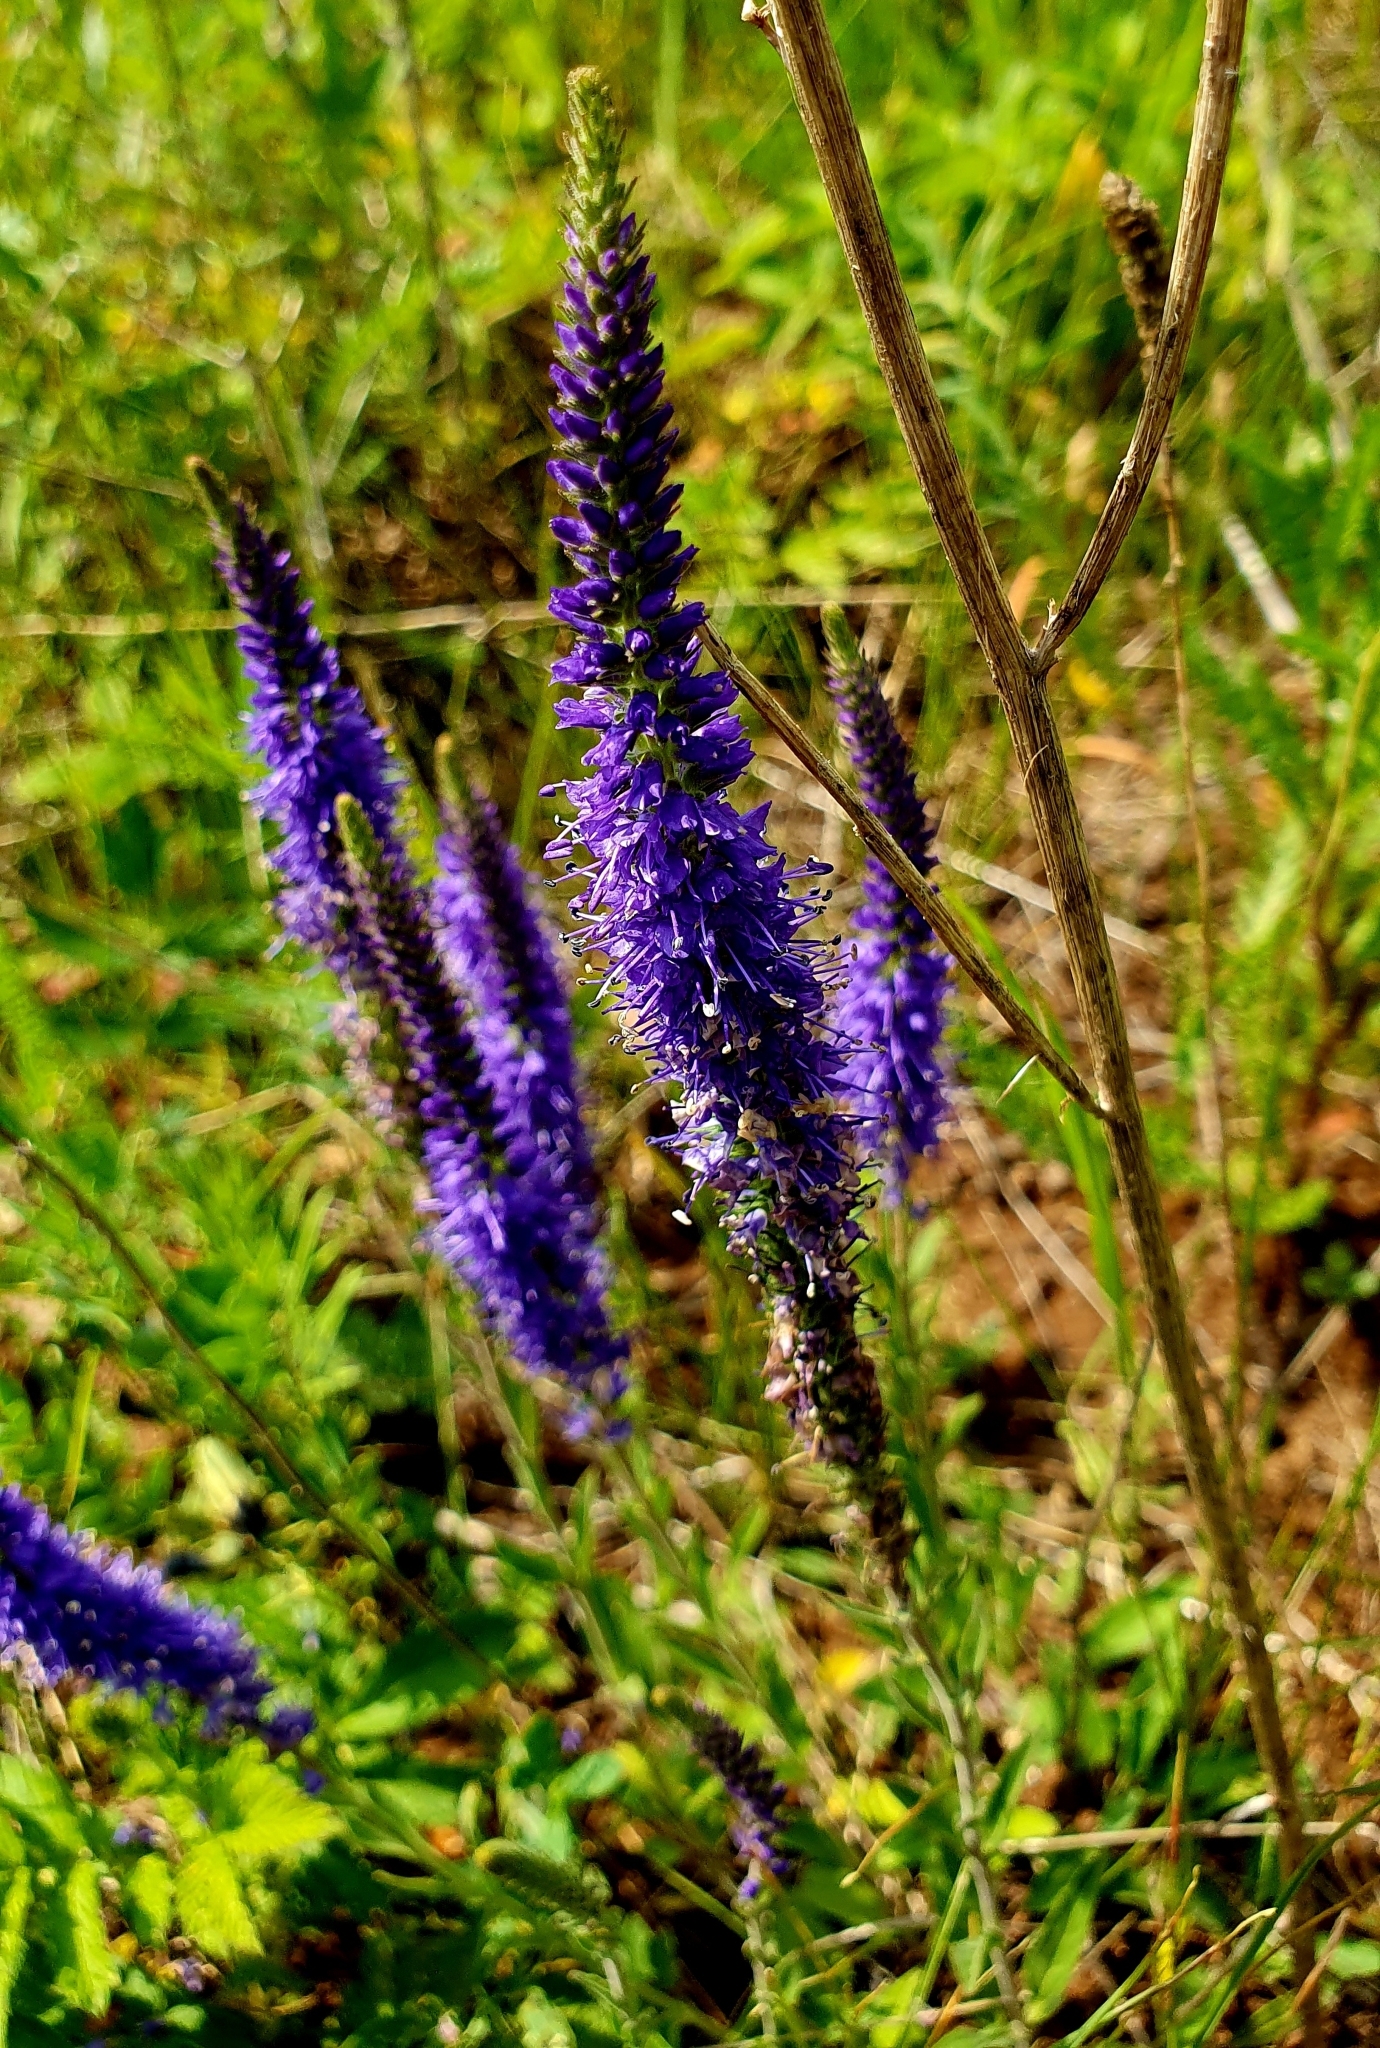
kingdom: Plantae
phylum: Tracheophyta
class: Magnoliopsida
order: Lamiales
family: Plantaginaceae
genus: Veronica
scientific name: Veronica spicata
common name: Spiked speedwell
